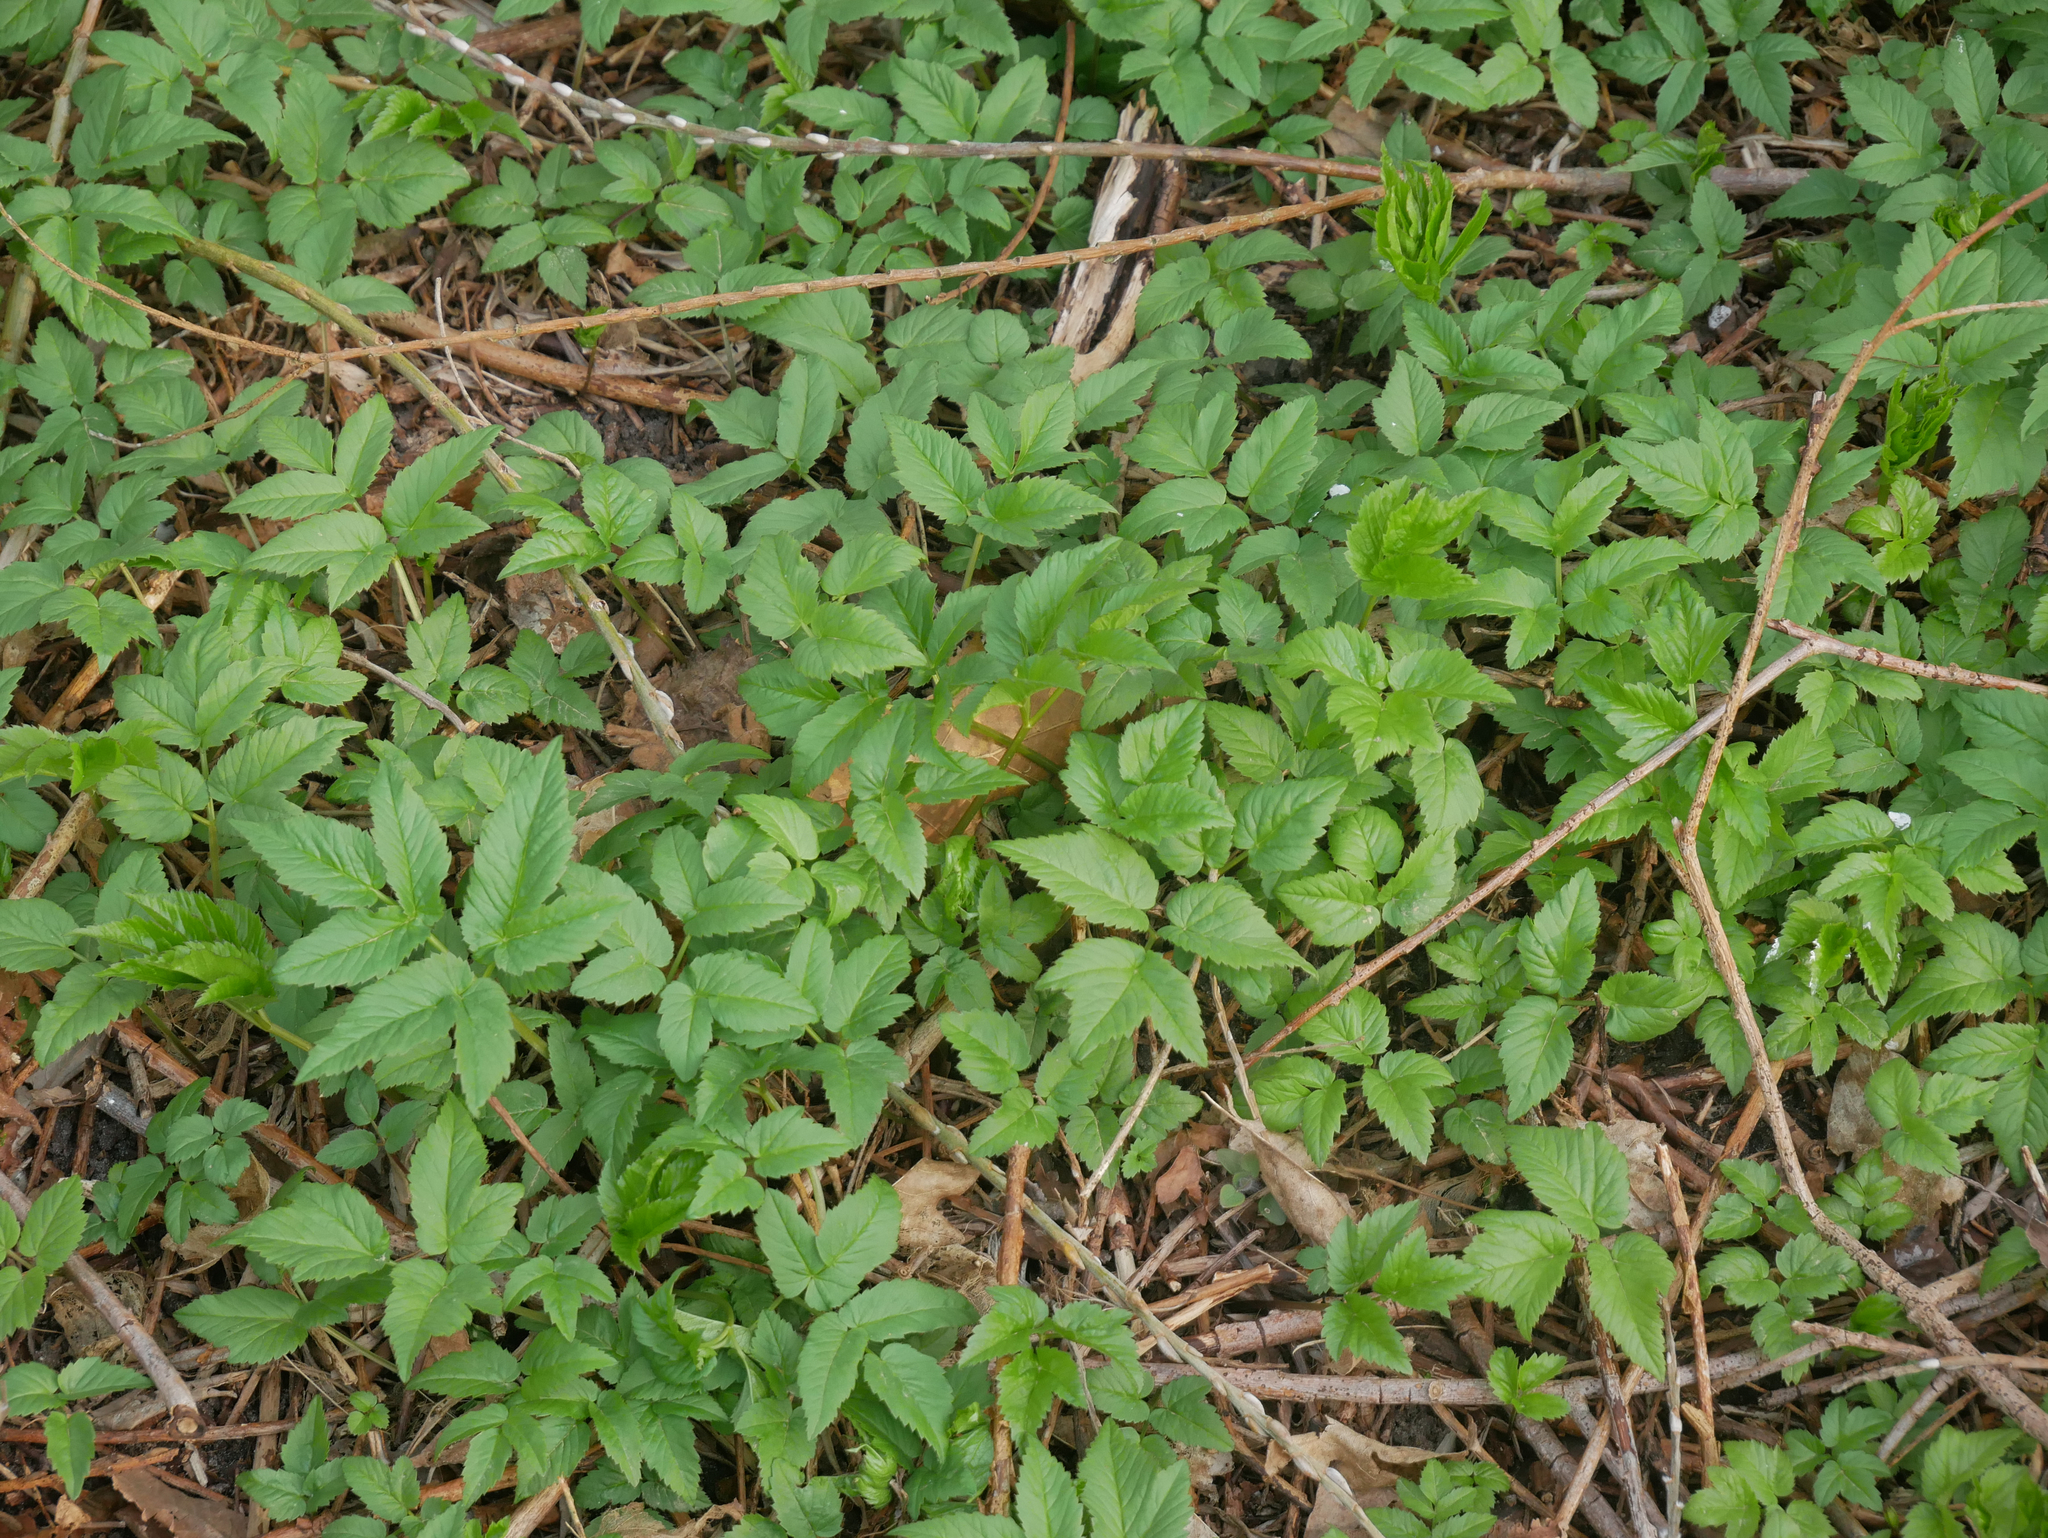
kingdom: Plantae
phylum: Tracheophyta
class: Magnoliopsida
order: Apiales
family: Apiaceae
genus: Aegopodium
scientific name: Aegopodium podagraria
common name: Ground-elder
